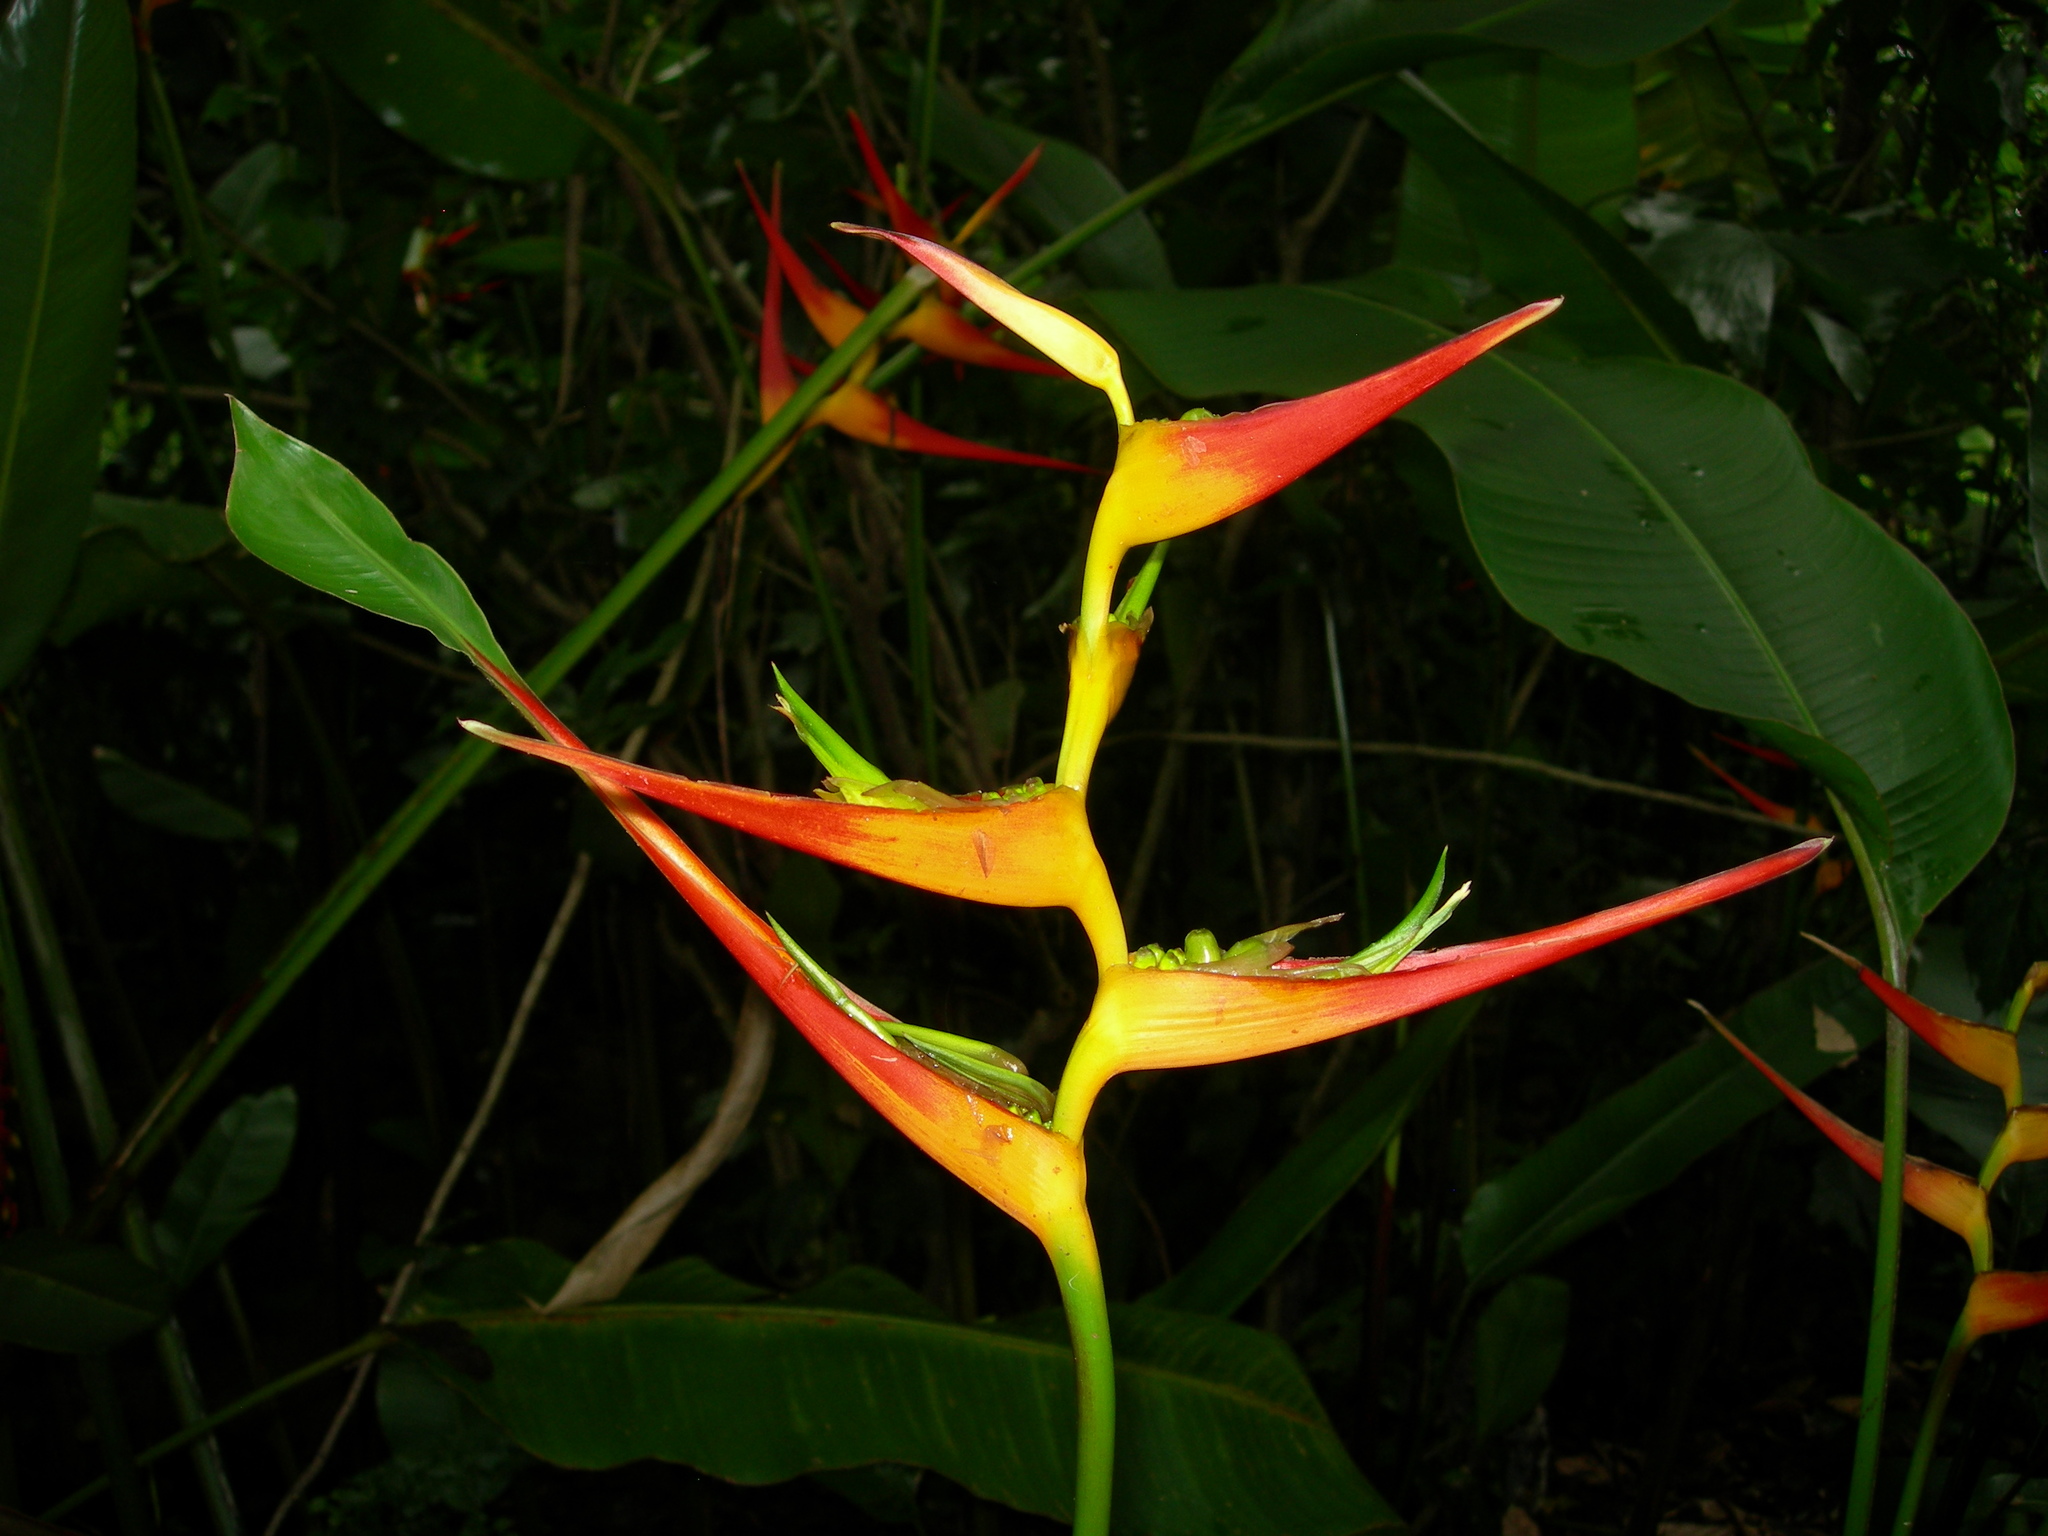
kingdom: Plantae
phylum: Tracheophyta
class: Liliopsida
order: Zingiberales
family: Heliconiaceae
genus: Heliconia
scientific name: Heliconia latispatha
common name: Expanded lobsterclaw
